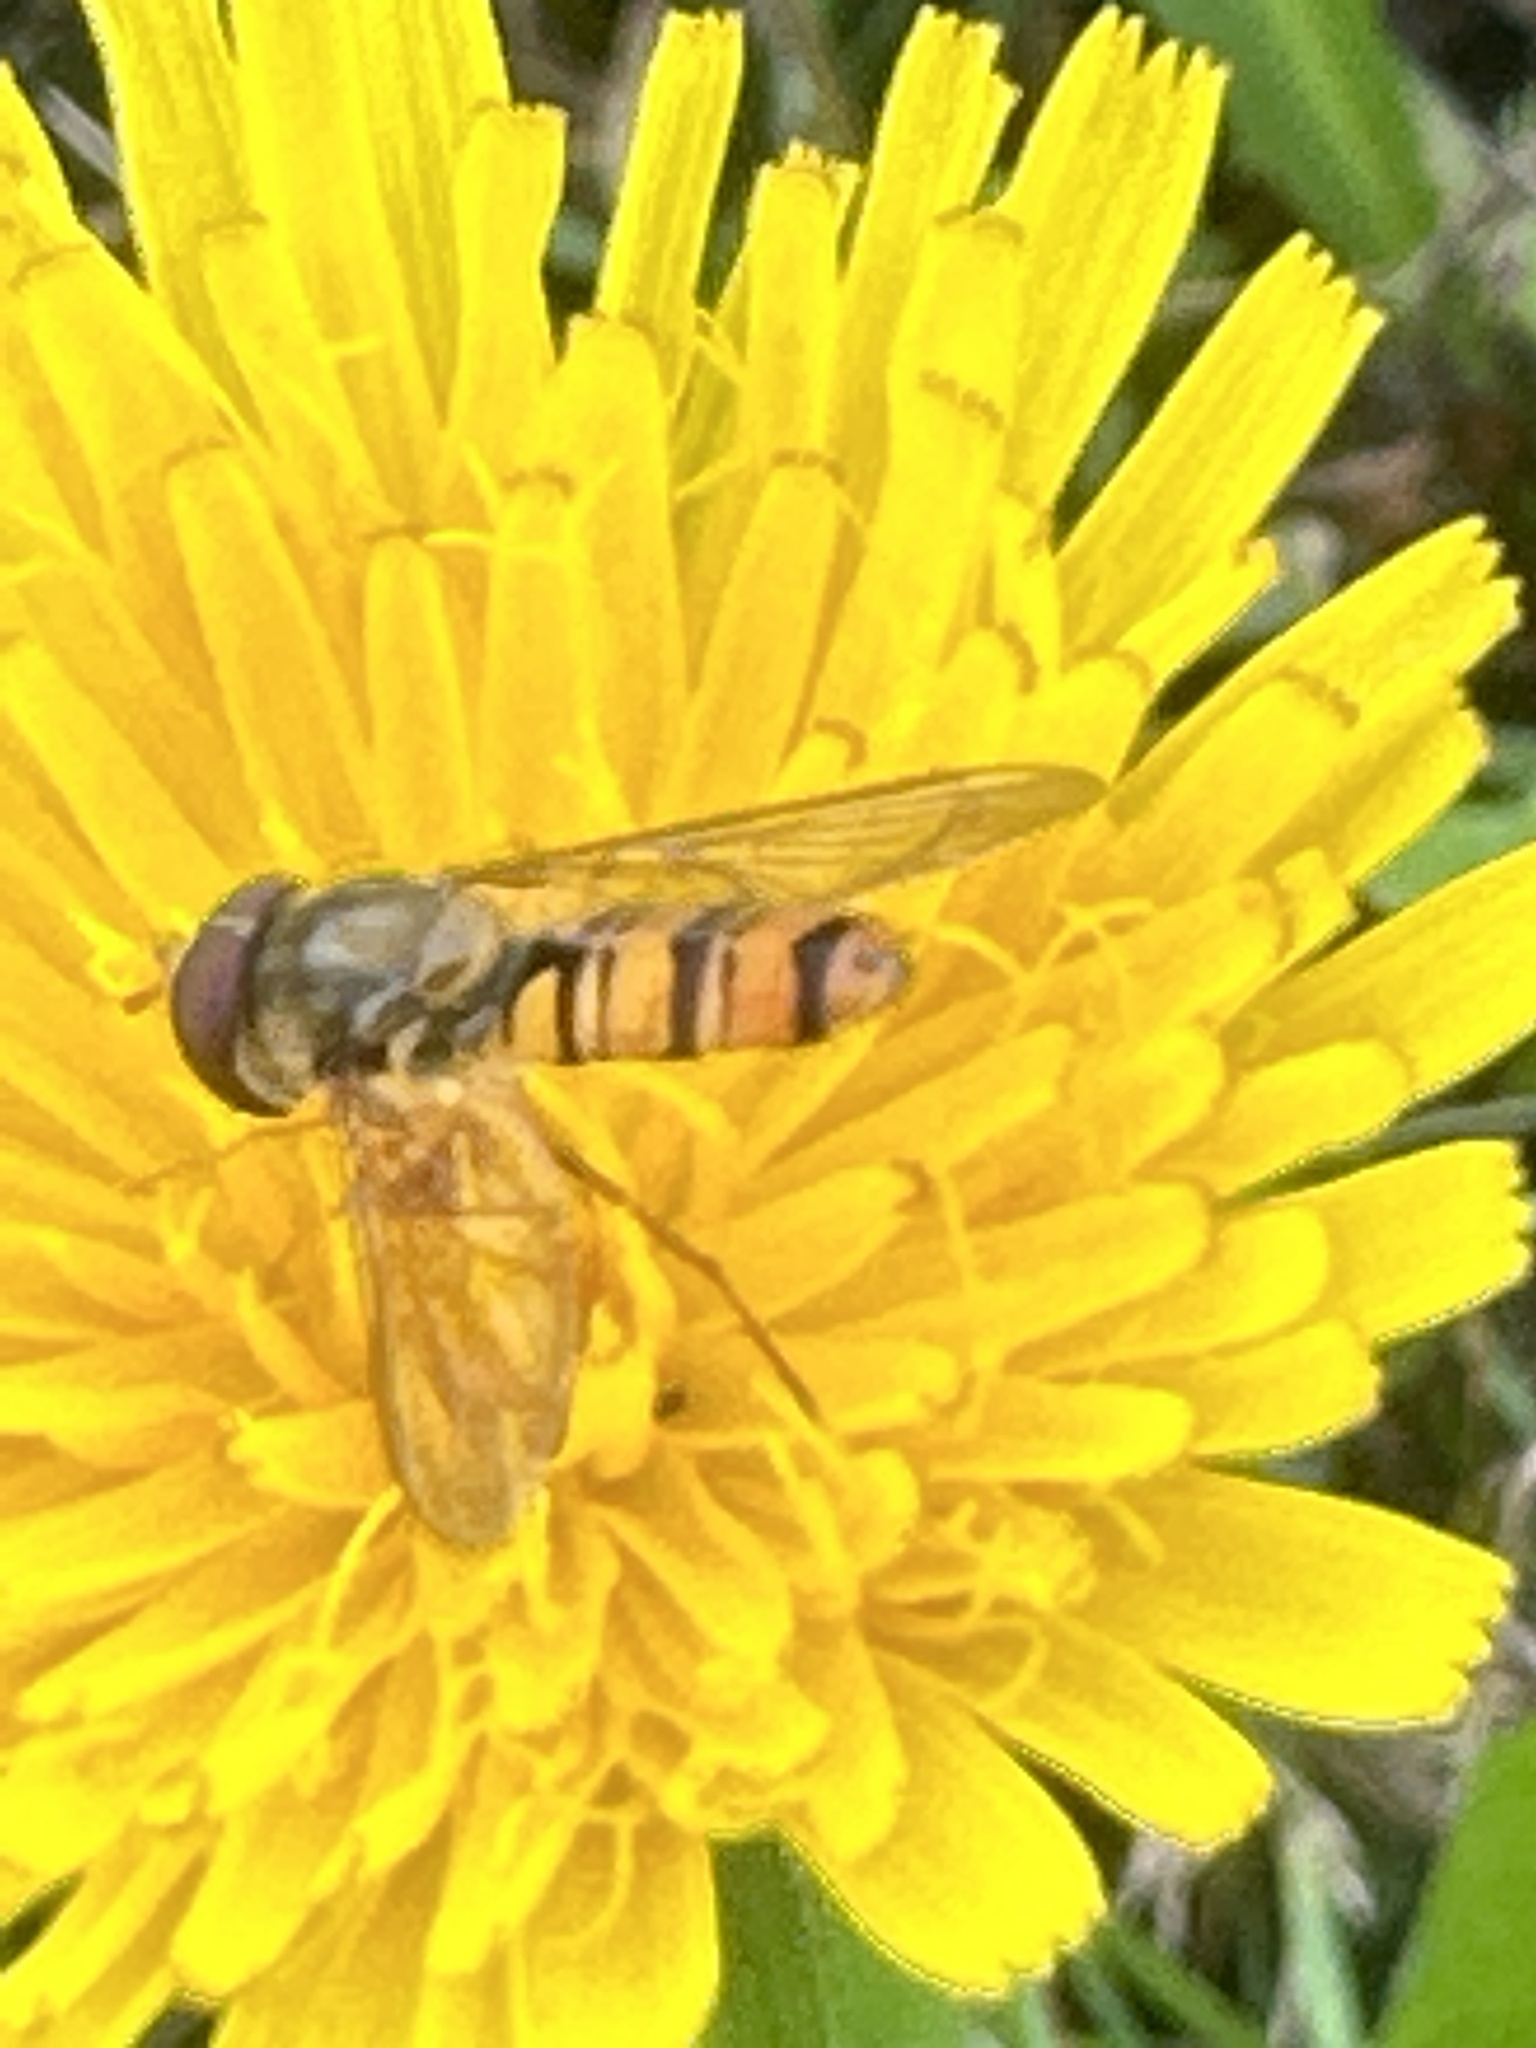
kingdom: Animalia
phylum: Arthropoda
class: Insecta
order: Diptera
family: Syrphidae
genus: Episyrphus
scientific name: Episyrphus balteatus
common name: Marmalade hoverfly
